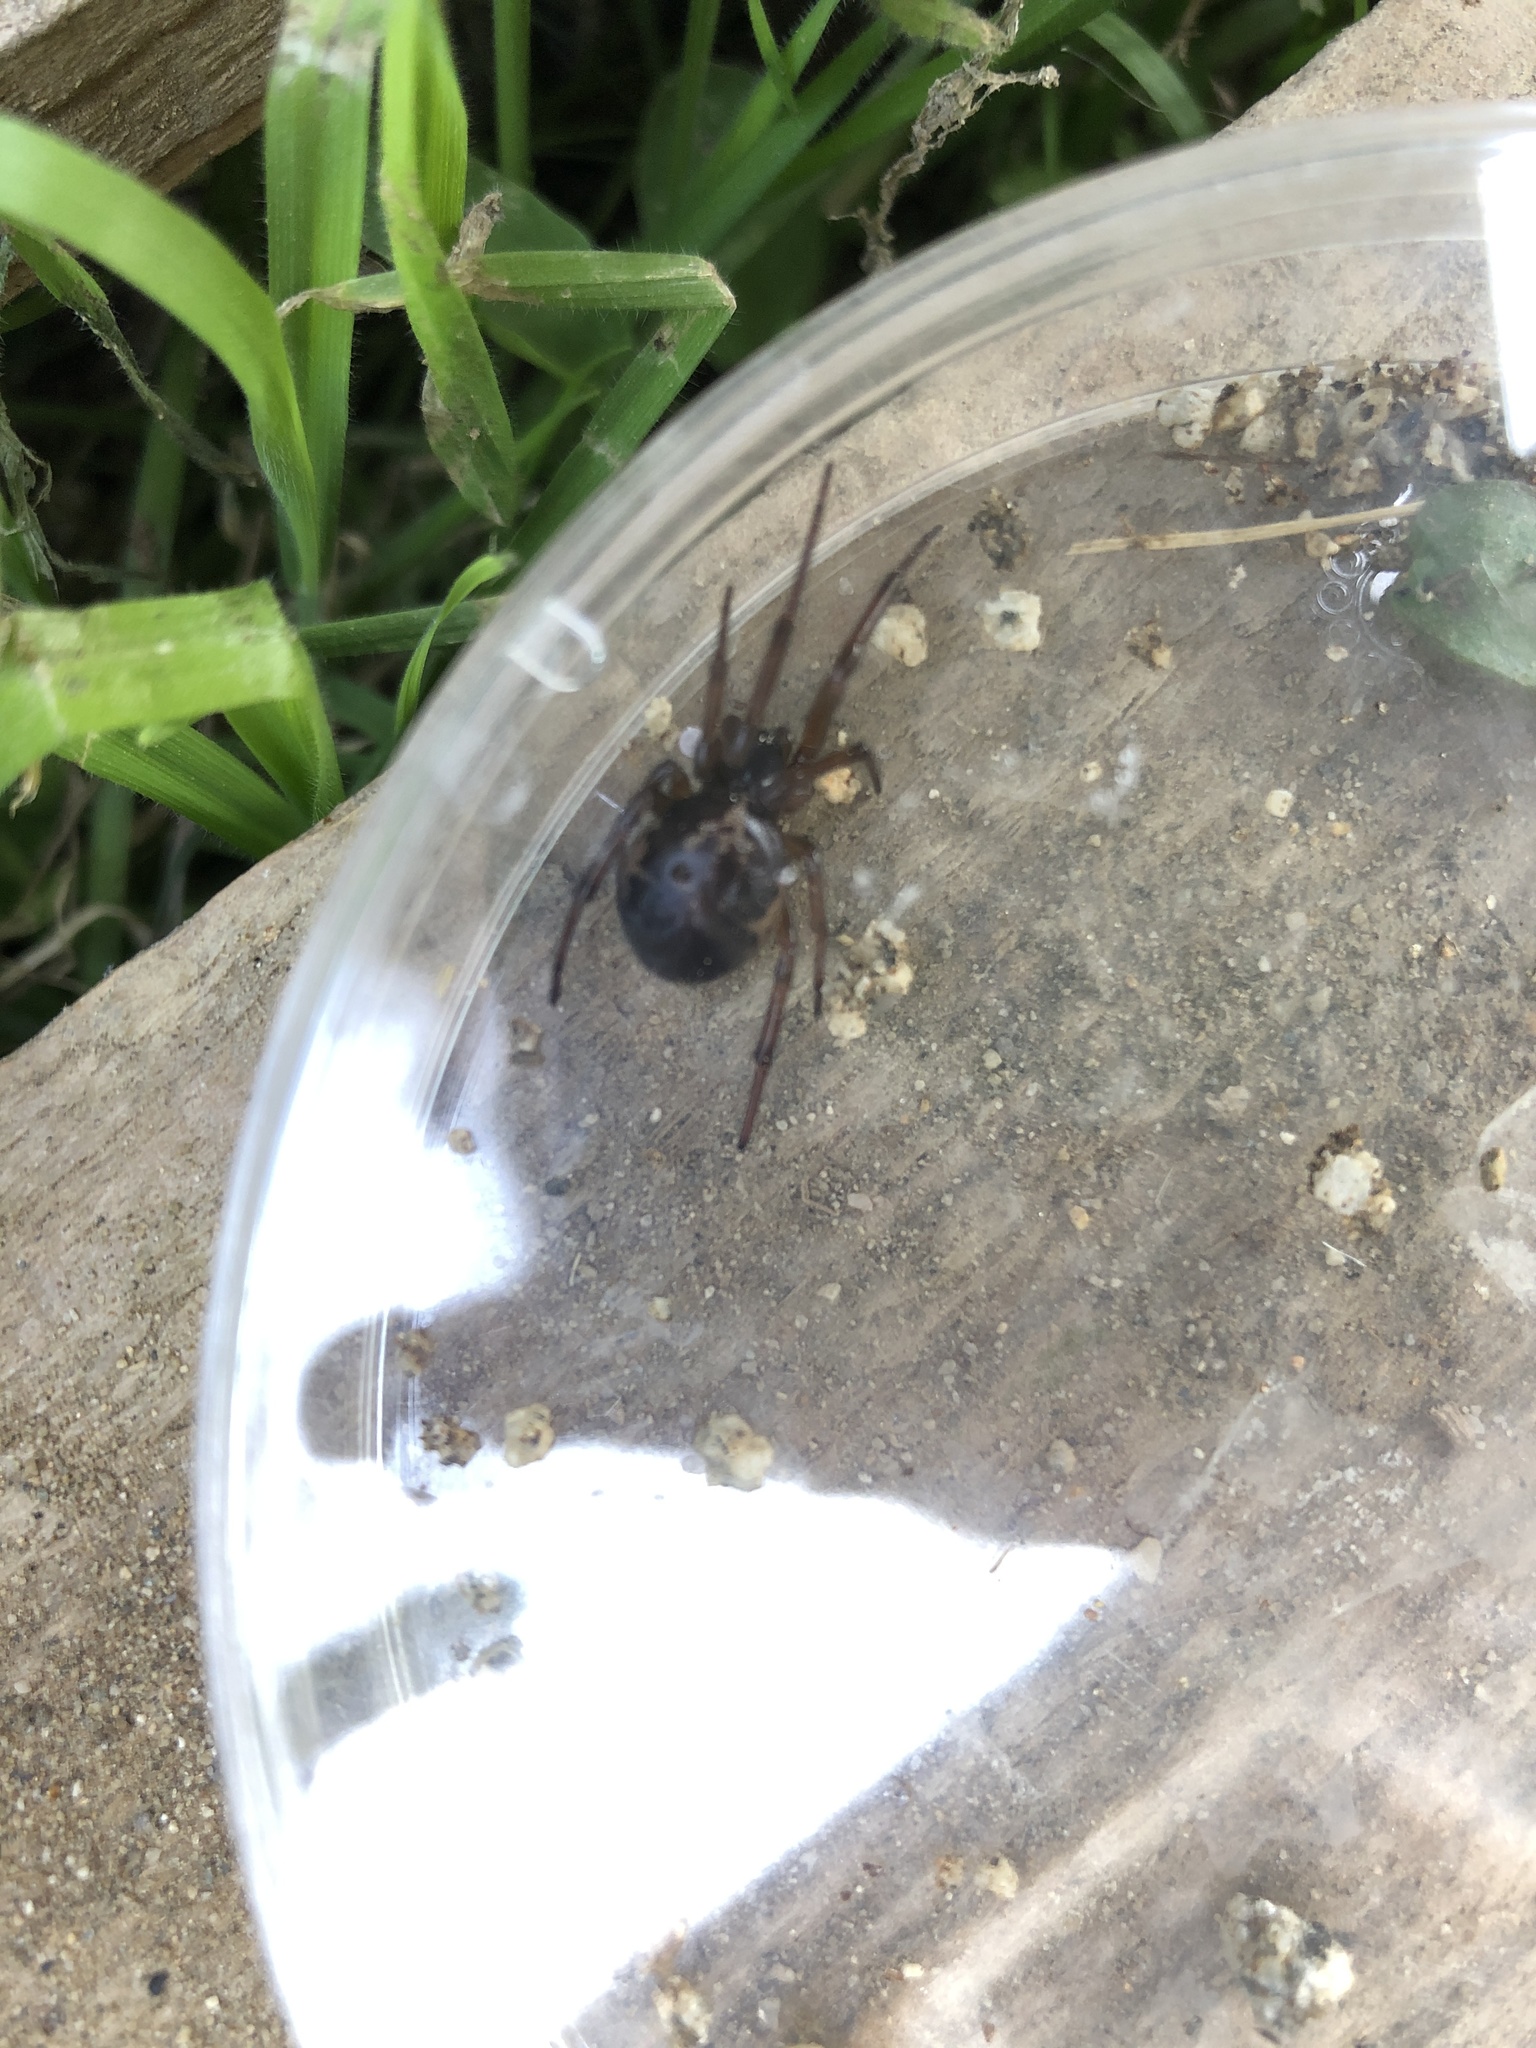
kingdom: Animalia
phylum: Arthropoda
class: Arachnida
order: Araneae
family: Theridiidae
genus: Steatoda
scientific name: Steatoda grossa
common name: False black widow
